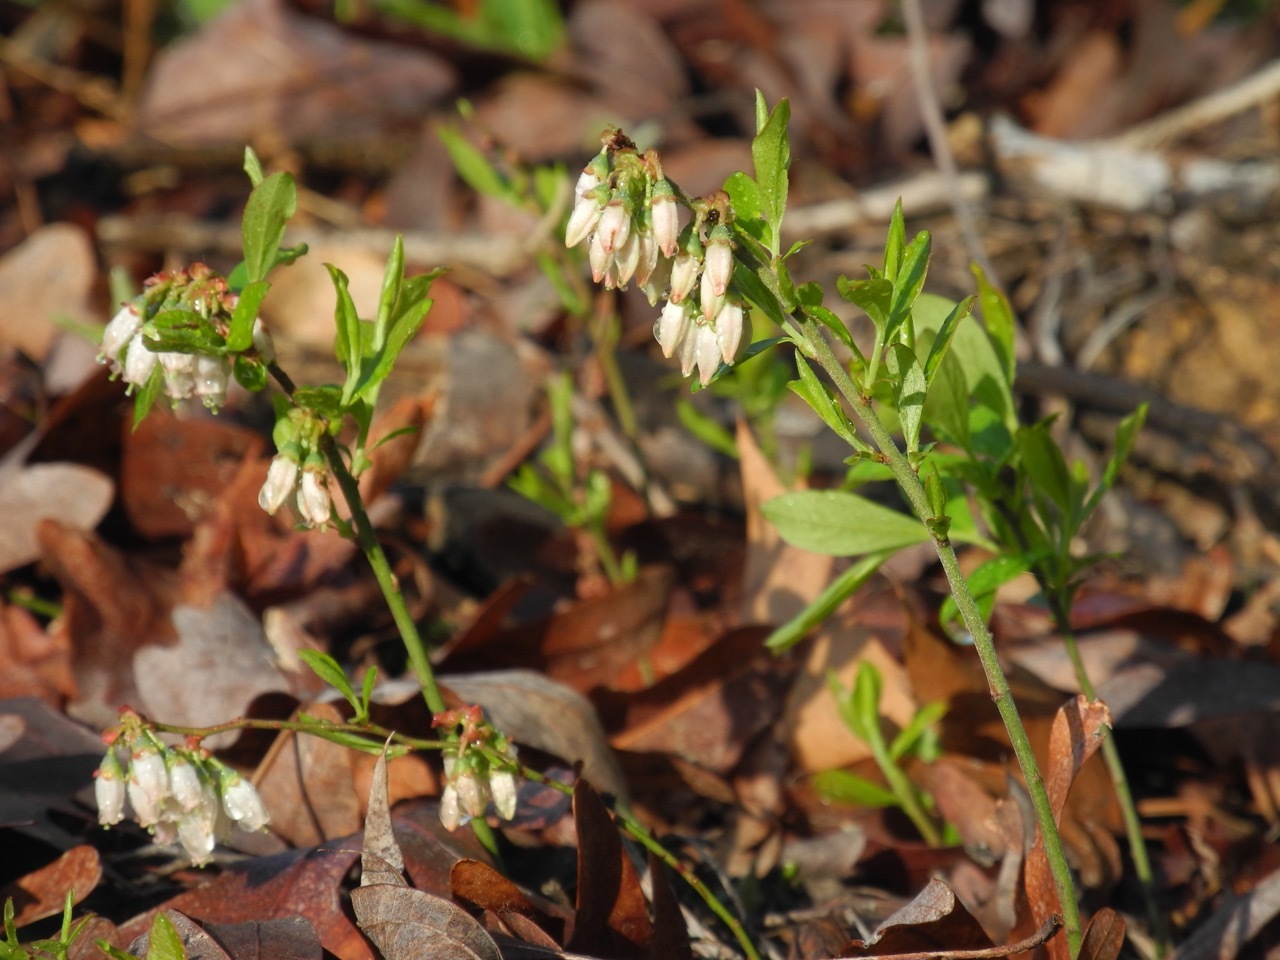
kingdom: Plantae
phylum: Tracheophyta
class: Magnoliopsida
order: Ericales
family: Ericaceae
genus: Vaccinium
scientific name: Vaccinium tenellum
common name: Southern blueberry
